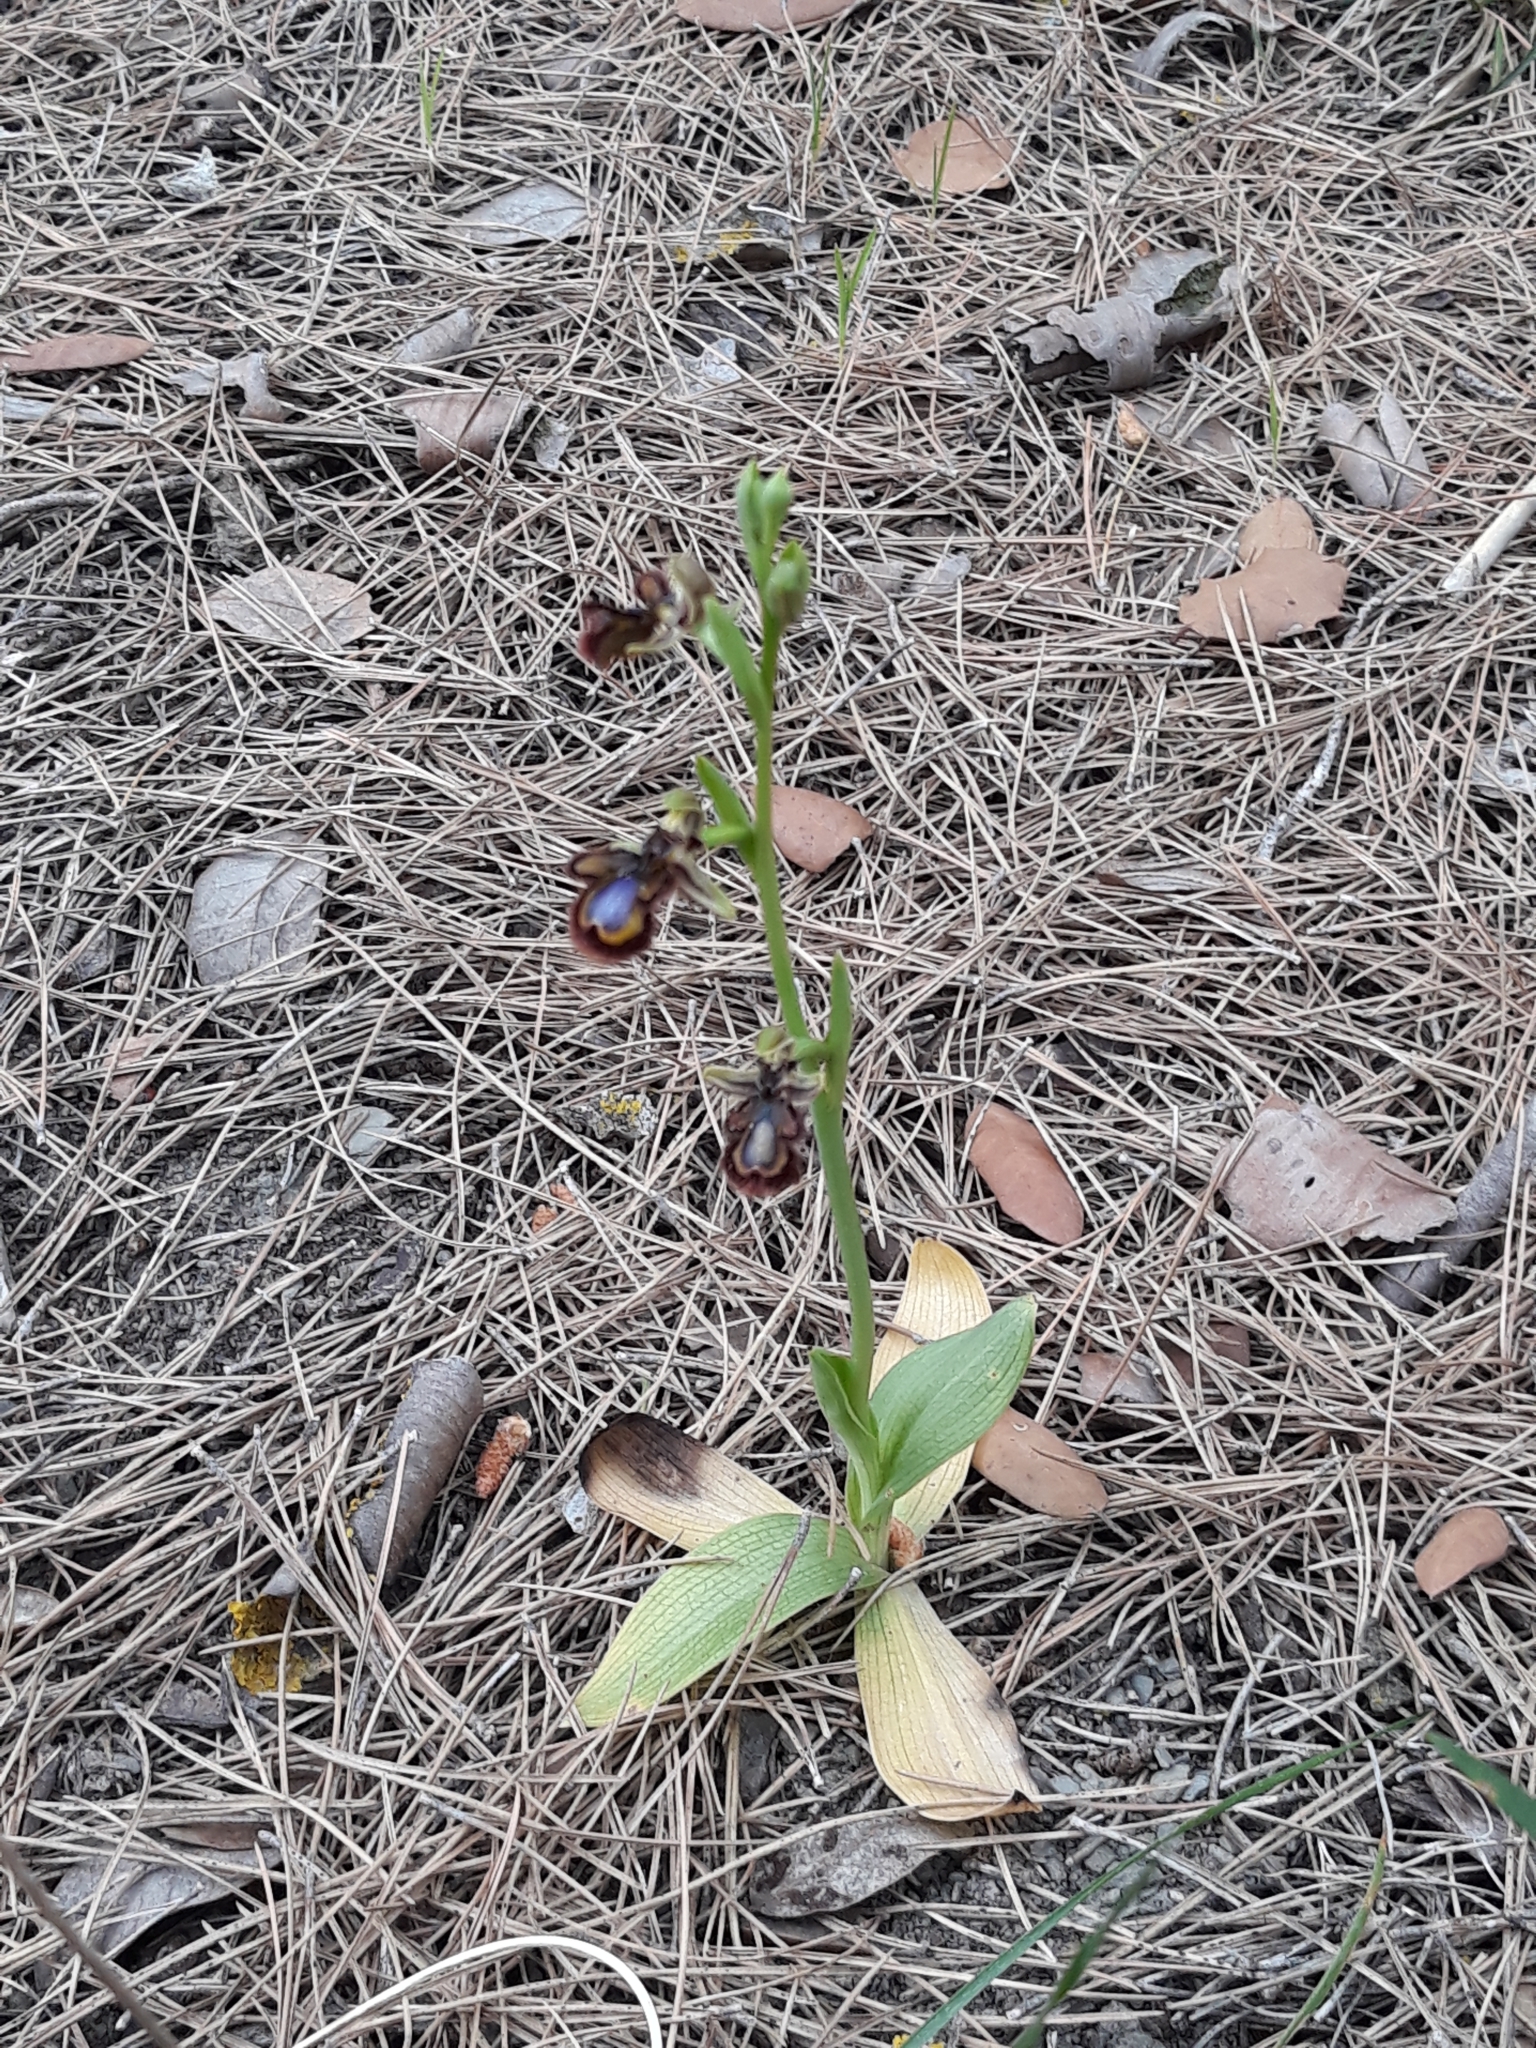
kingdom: Plantae
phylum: Tracheophyta
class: Liliopsida
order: Asparagales
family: Orchidaceae
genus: Ophrys
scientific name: Ophrys speculum
